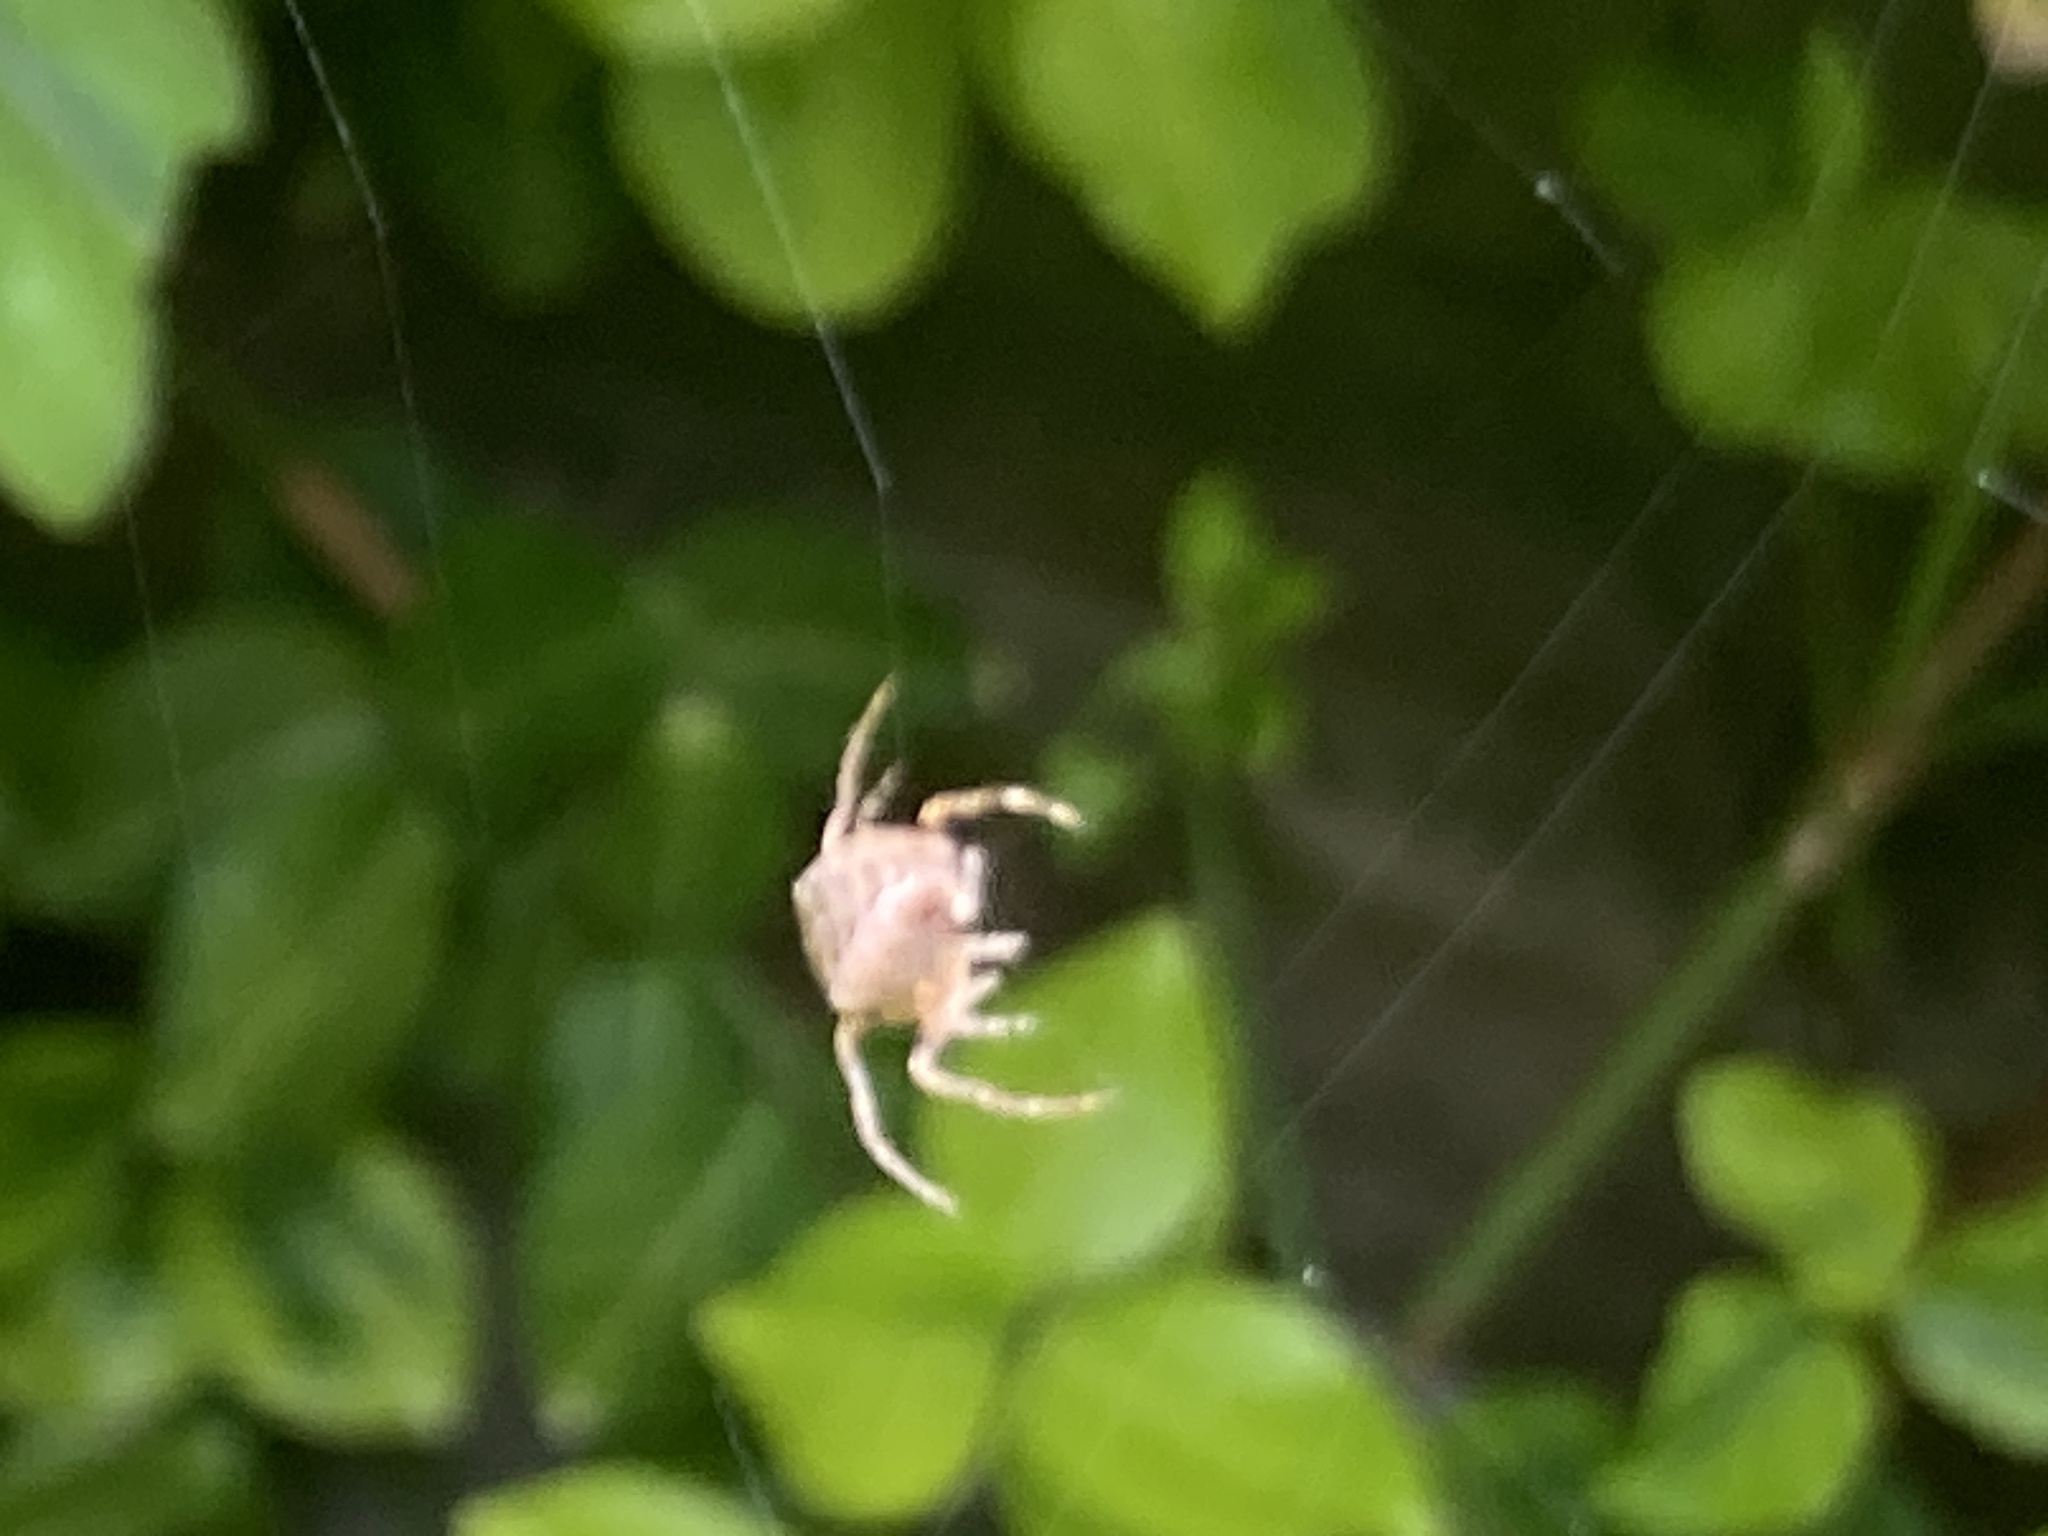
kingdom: Animalia
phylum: Arthropoda
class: Arachnida
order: Araneae
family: Araneidae
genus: Araneus
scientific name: Araneus diadematus
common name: Cross orbweaver
